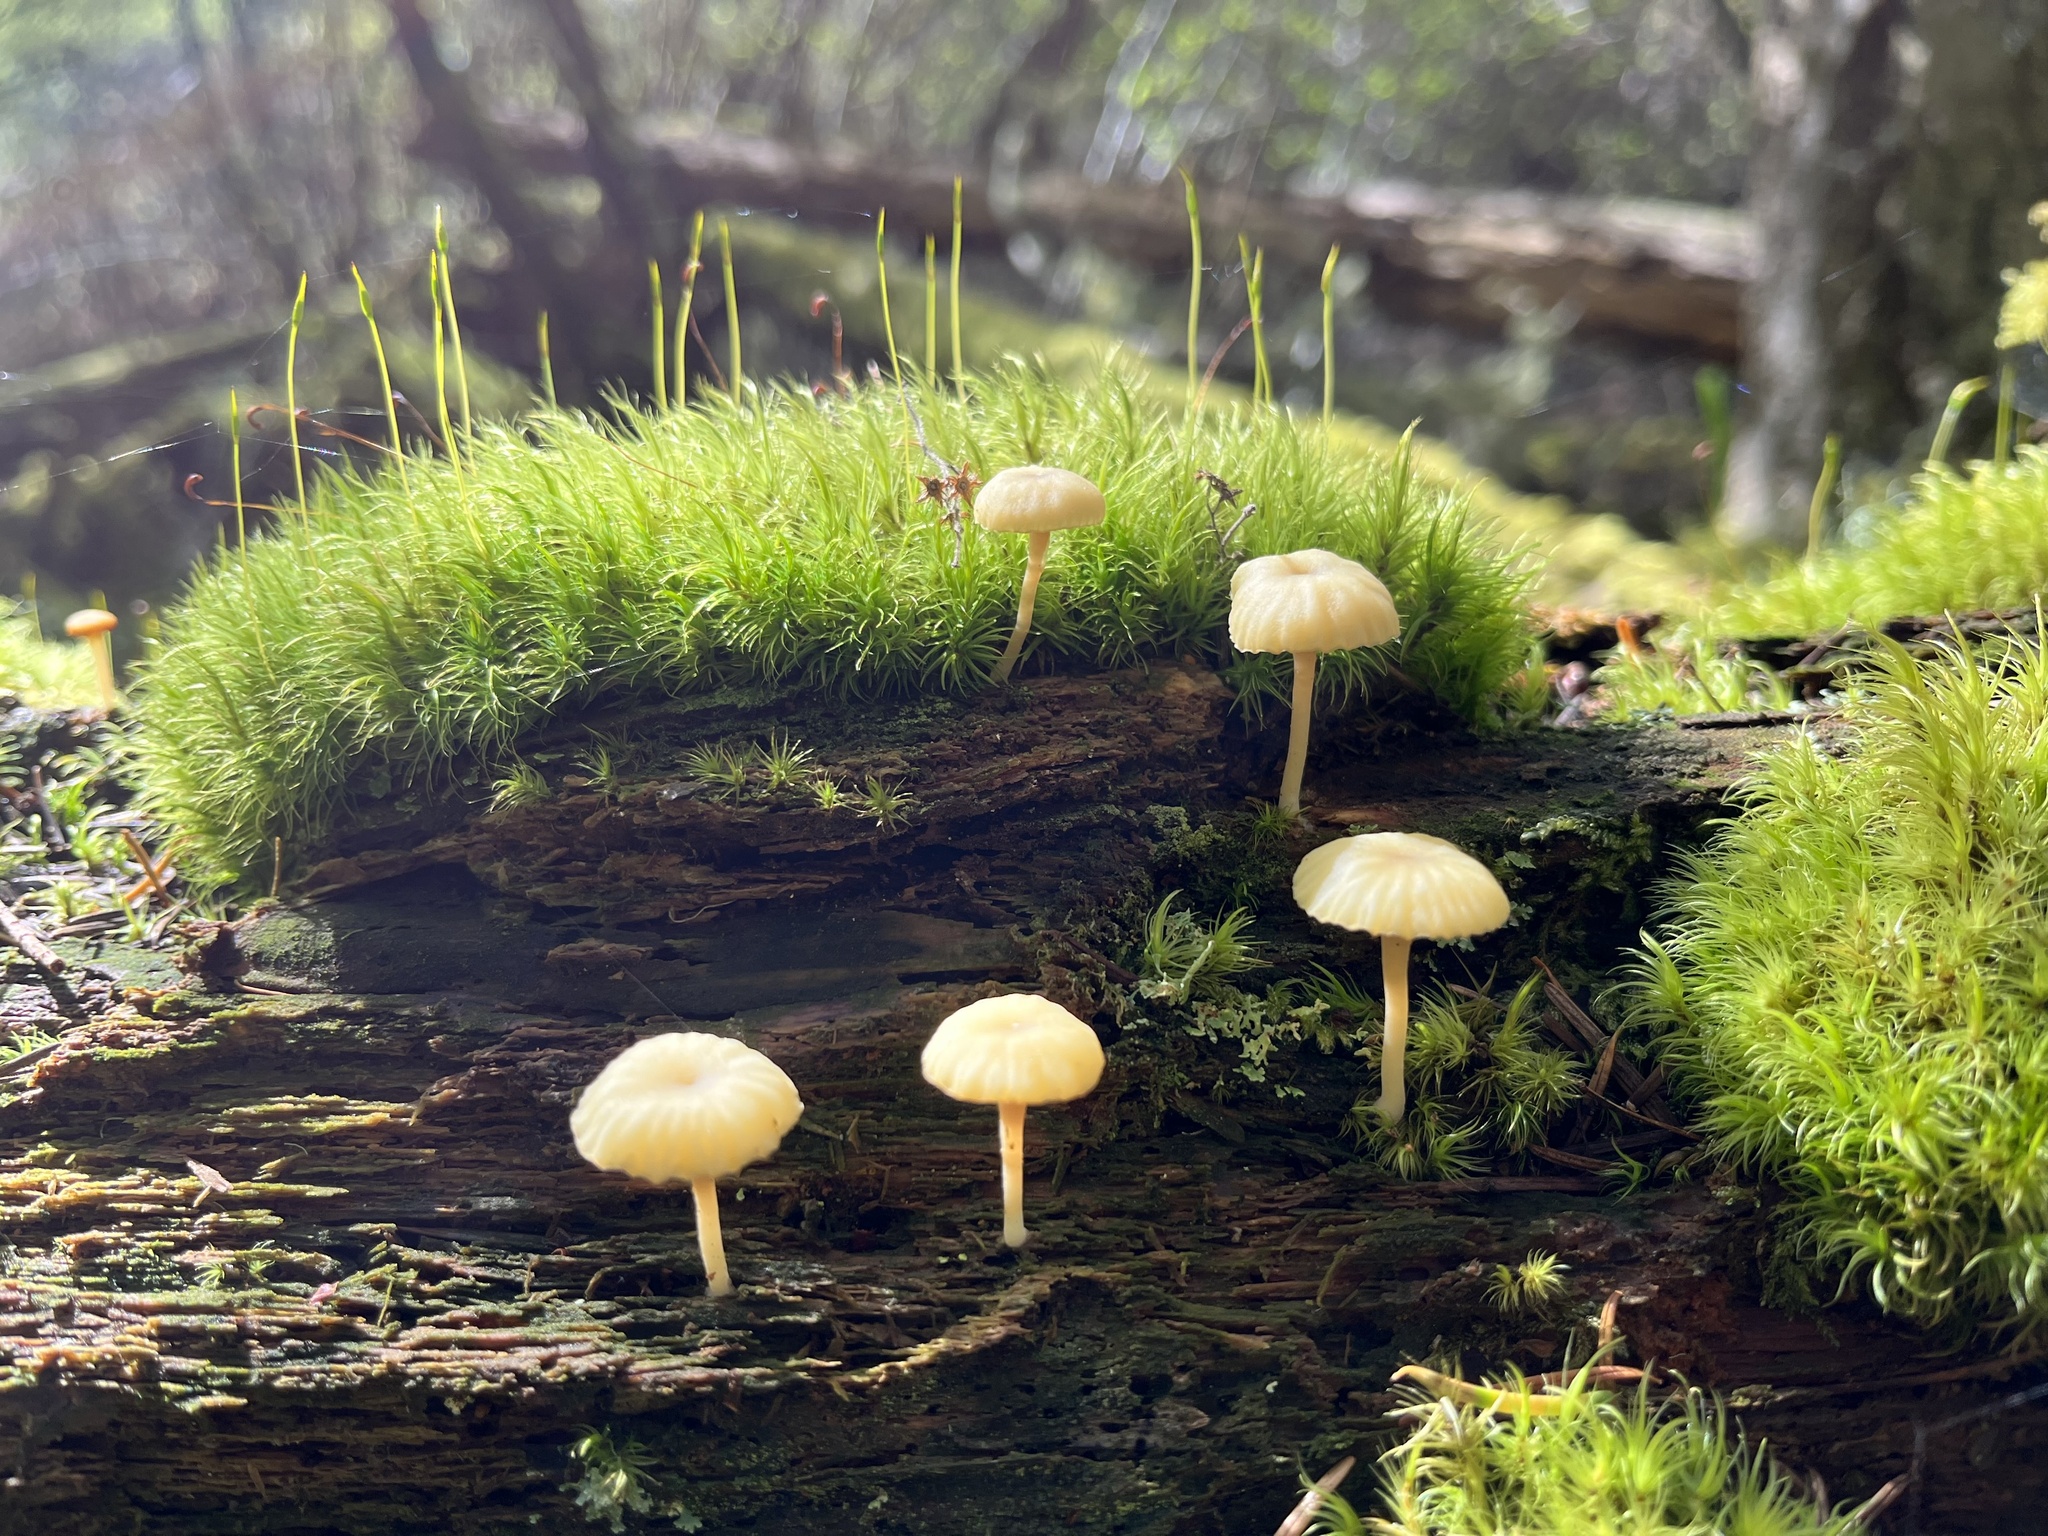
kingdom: Fungi
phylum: Basidiomycota
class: Agaricomycetes
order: Agaricales
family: Hygrophoraceae
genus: Lichenomphalia
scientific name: Lichenomphalia
